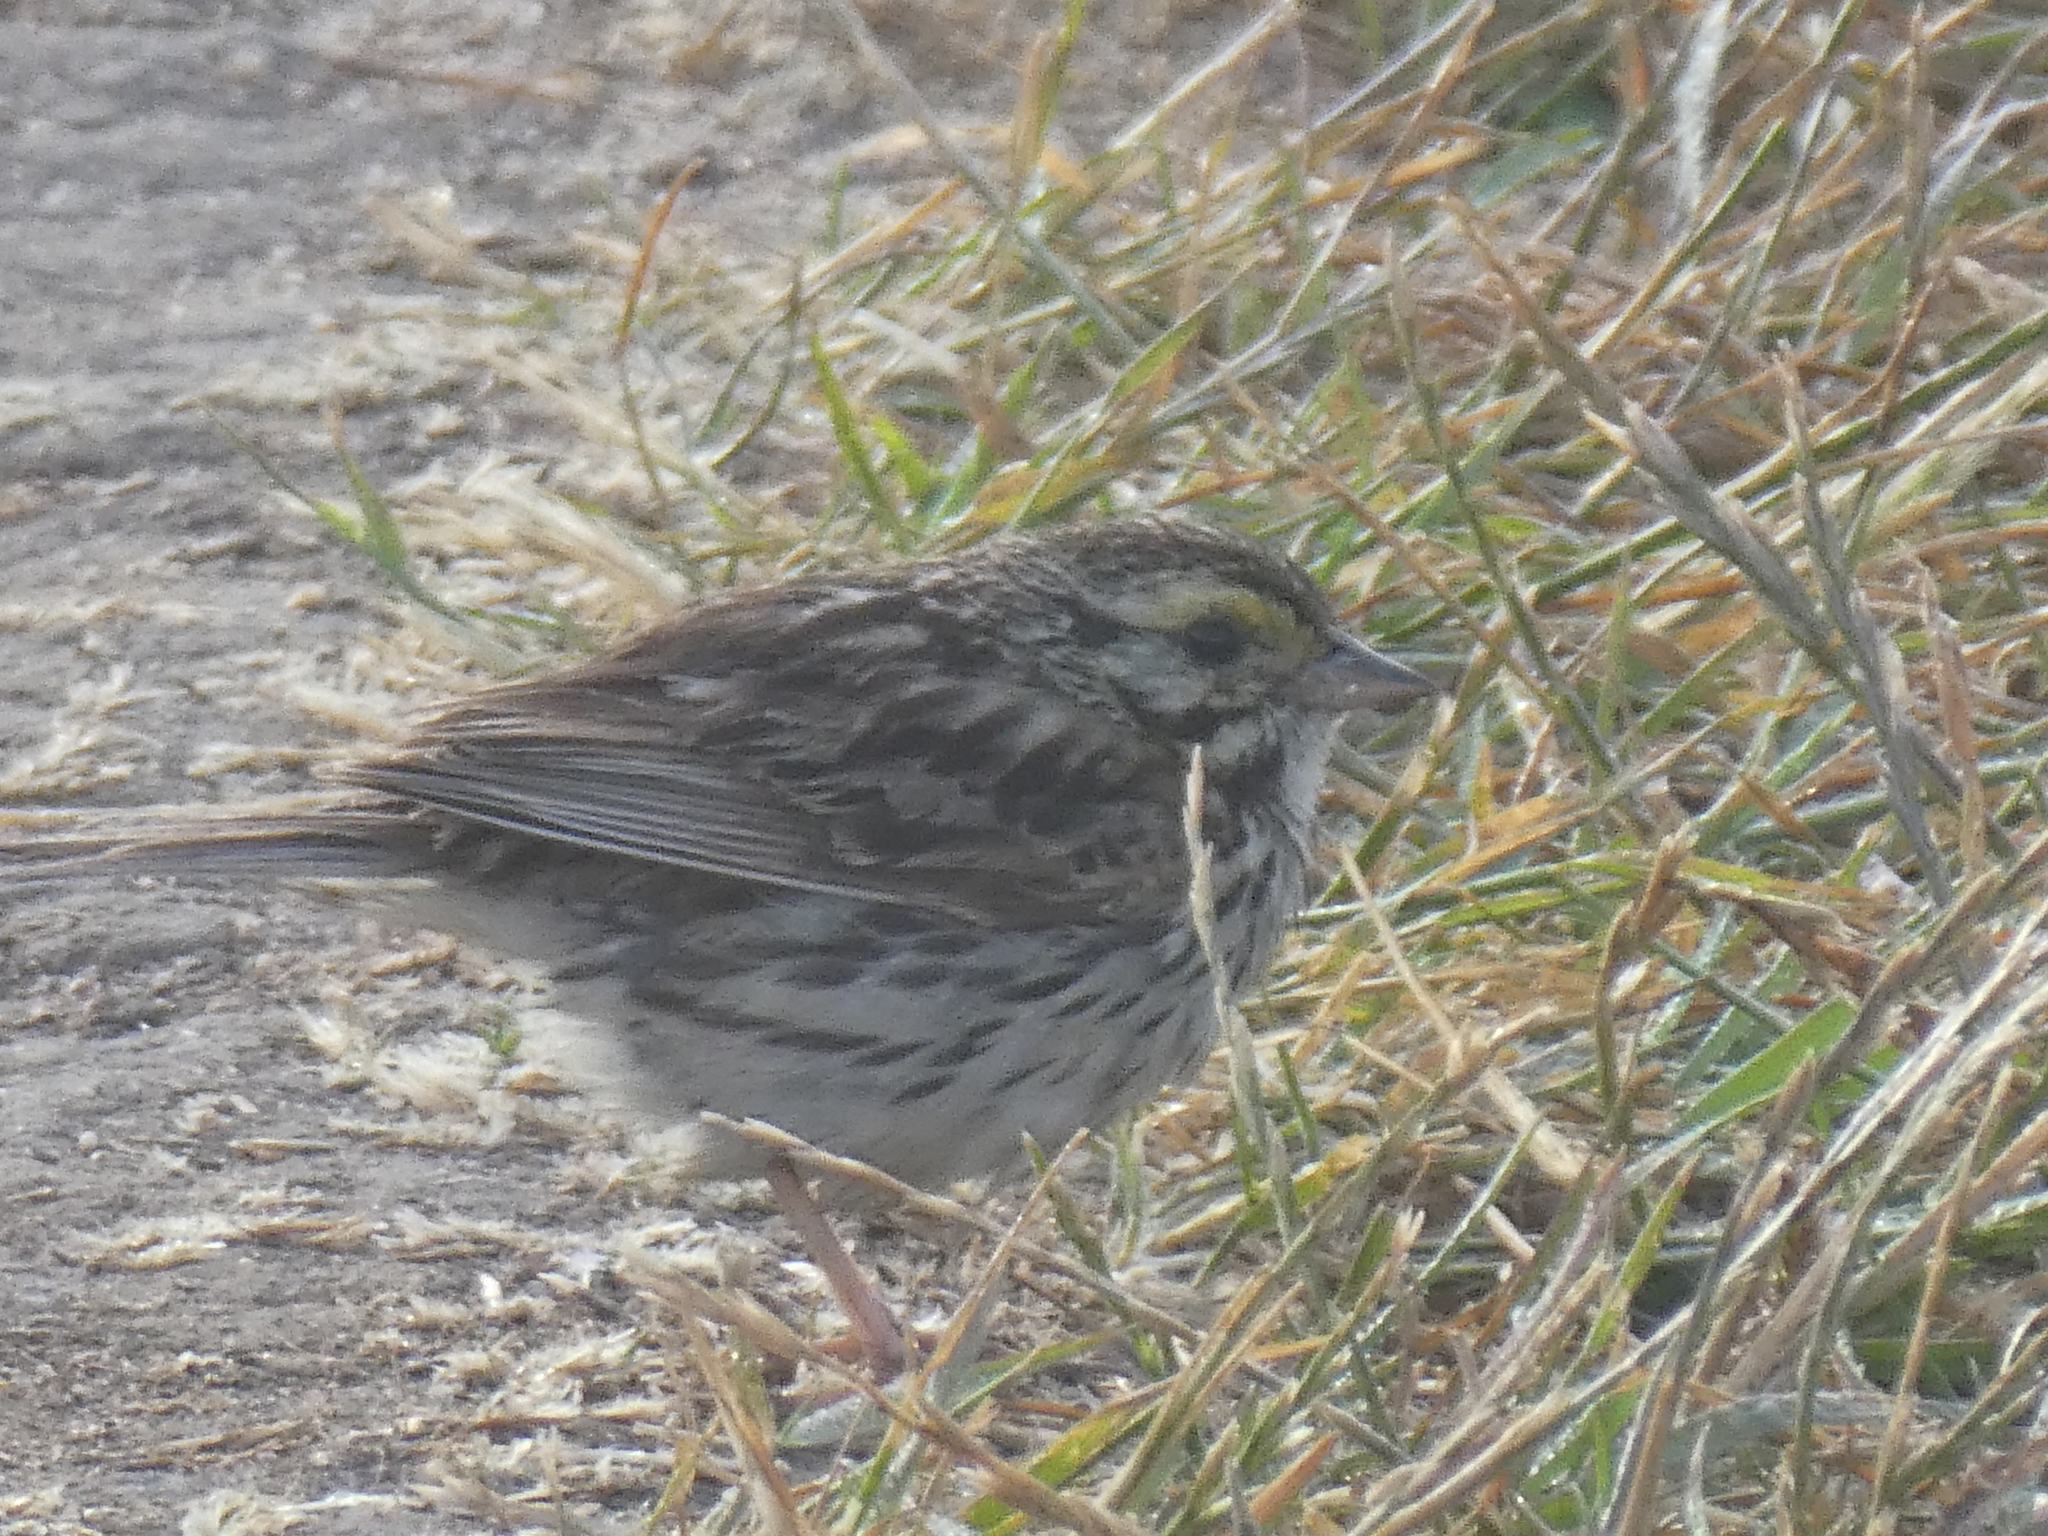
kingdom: Animalia
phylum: Chordata
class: Aves
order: Passeriformes
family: Passerellidae
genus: Passerculus
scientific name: Passerculus sandwichensis
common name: Savannah sparrow
